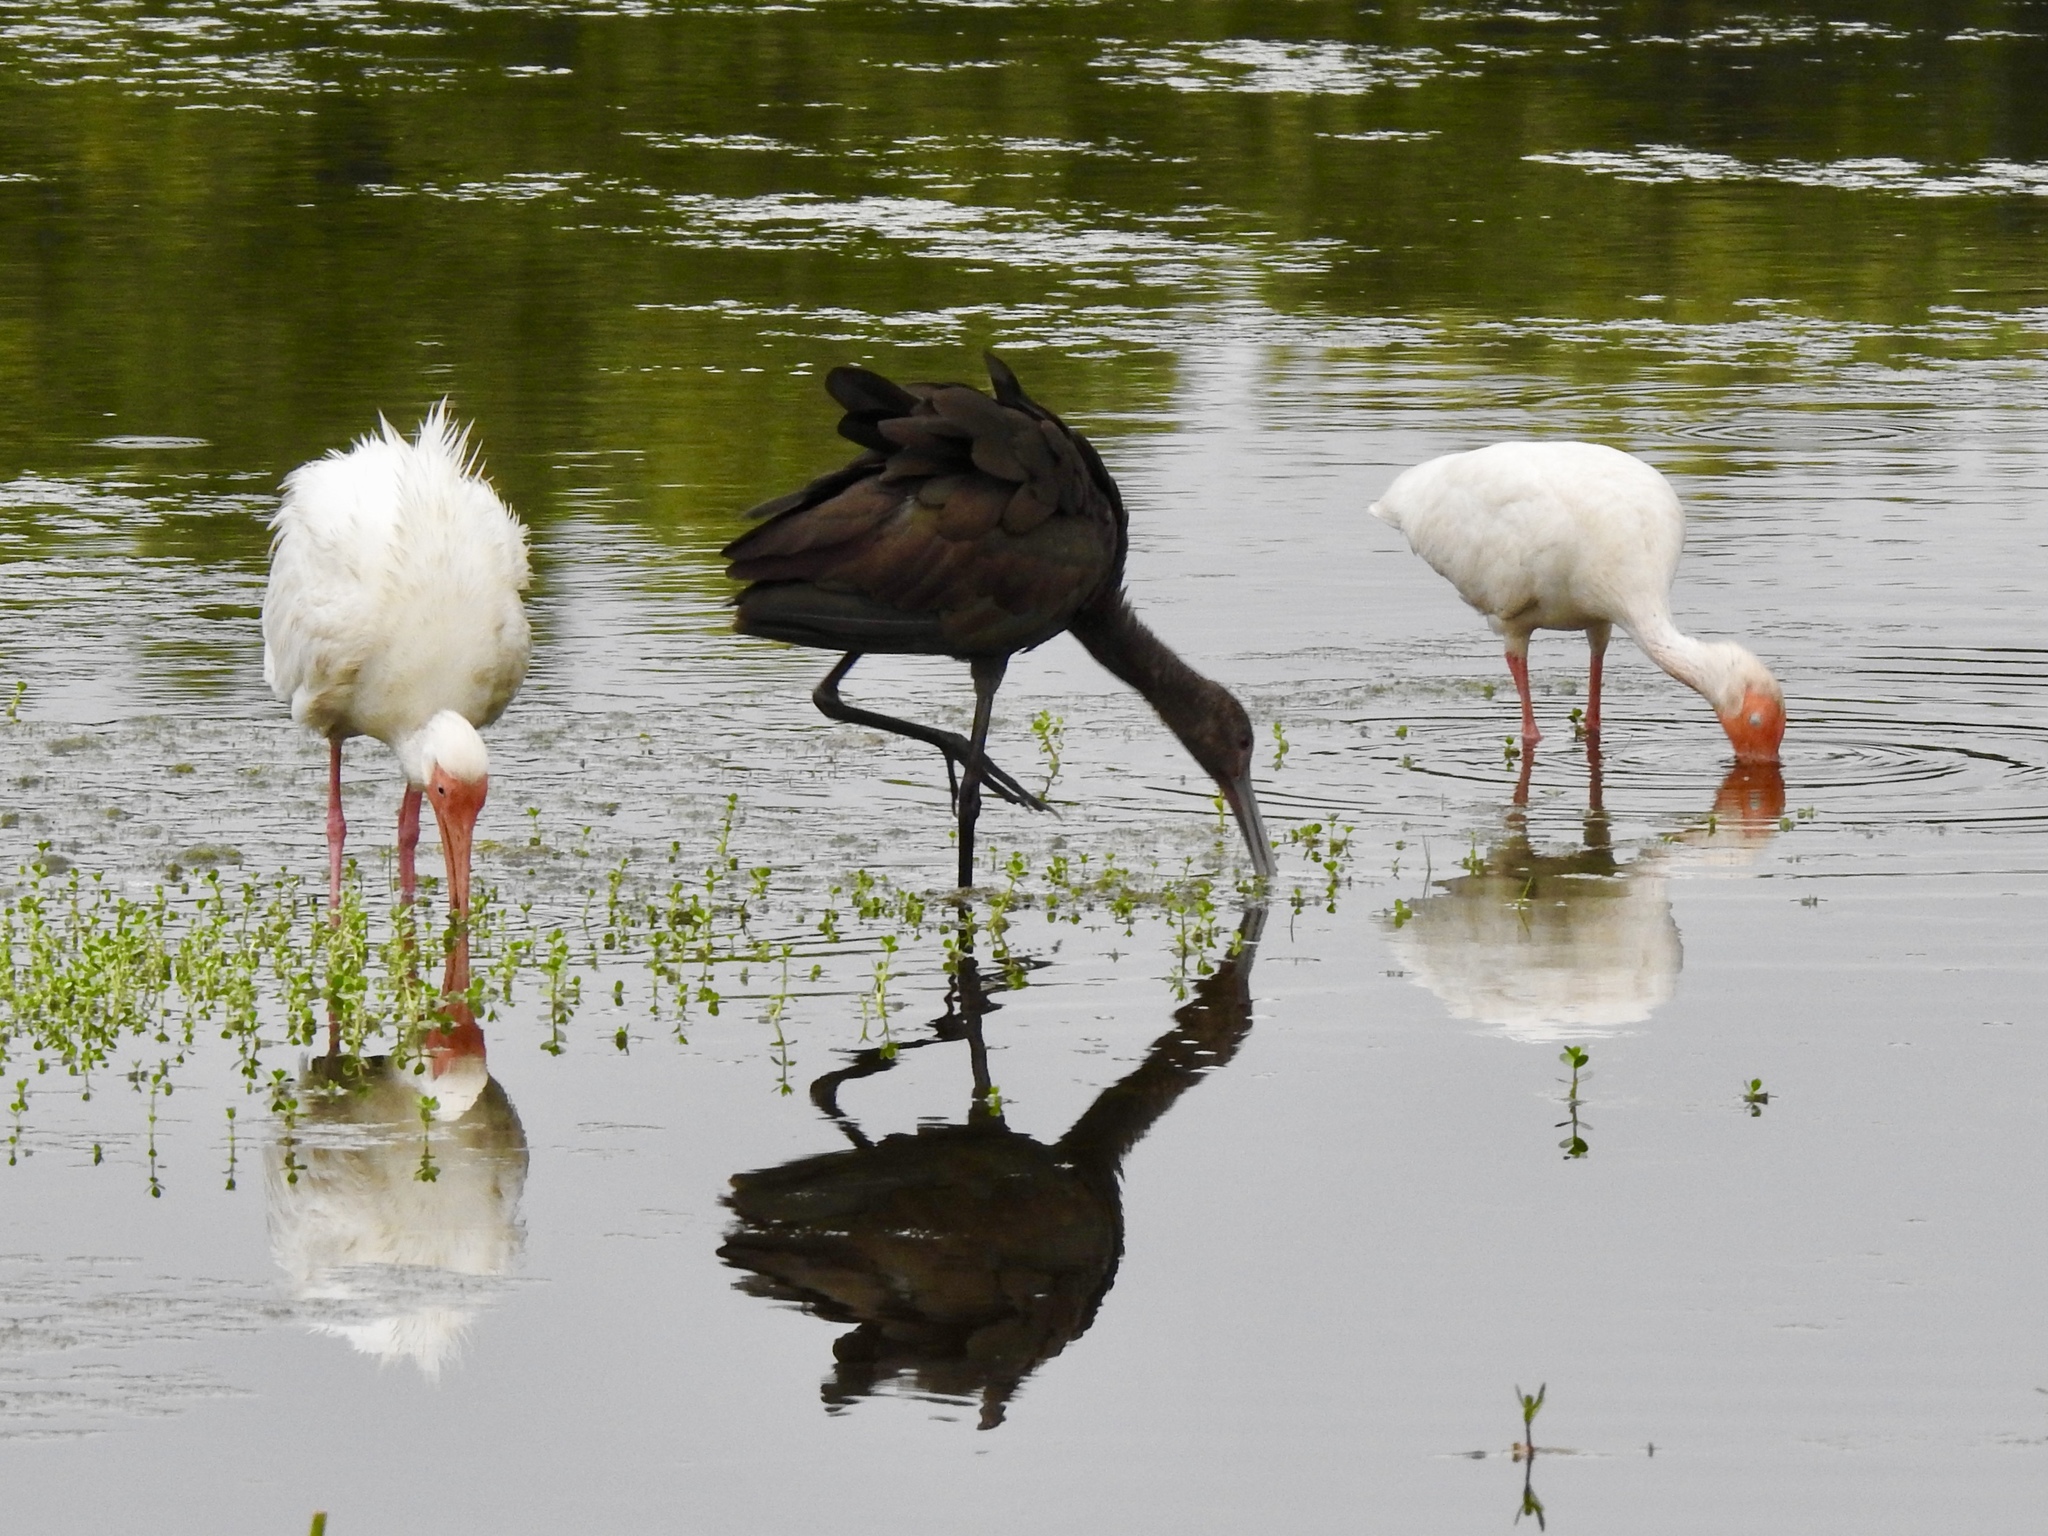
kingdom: Animalia
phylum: Chordata
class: Aves
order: Pelecaniformes
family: Threskiornithidae
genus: Plegadis
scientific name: Plegadis chihi
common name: White-faced ibis
